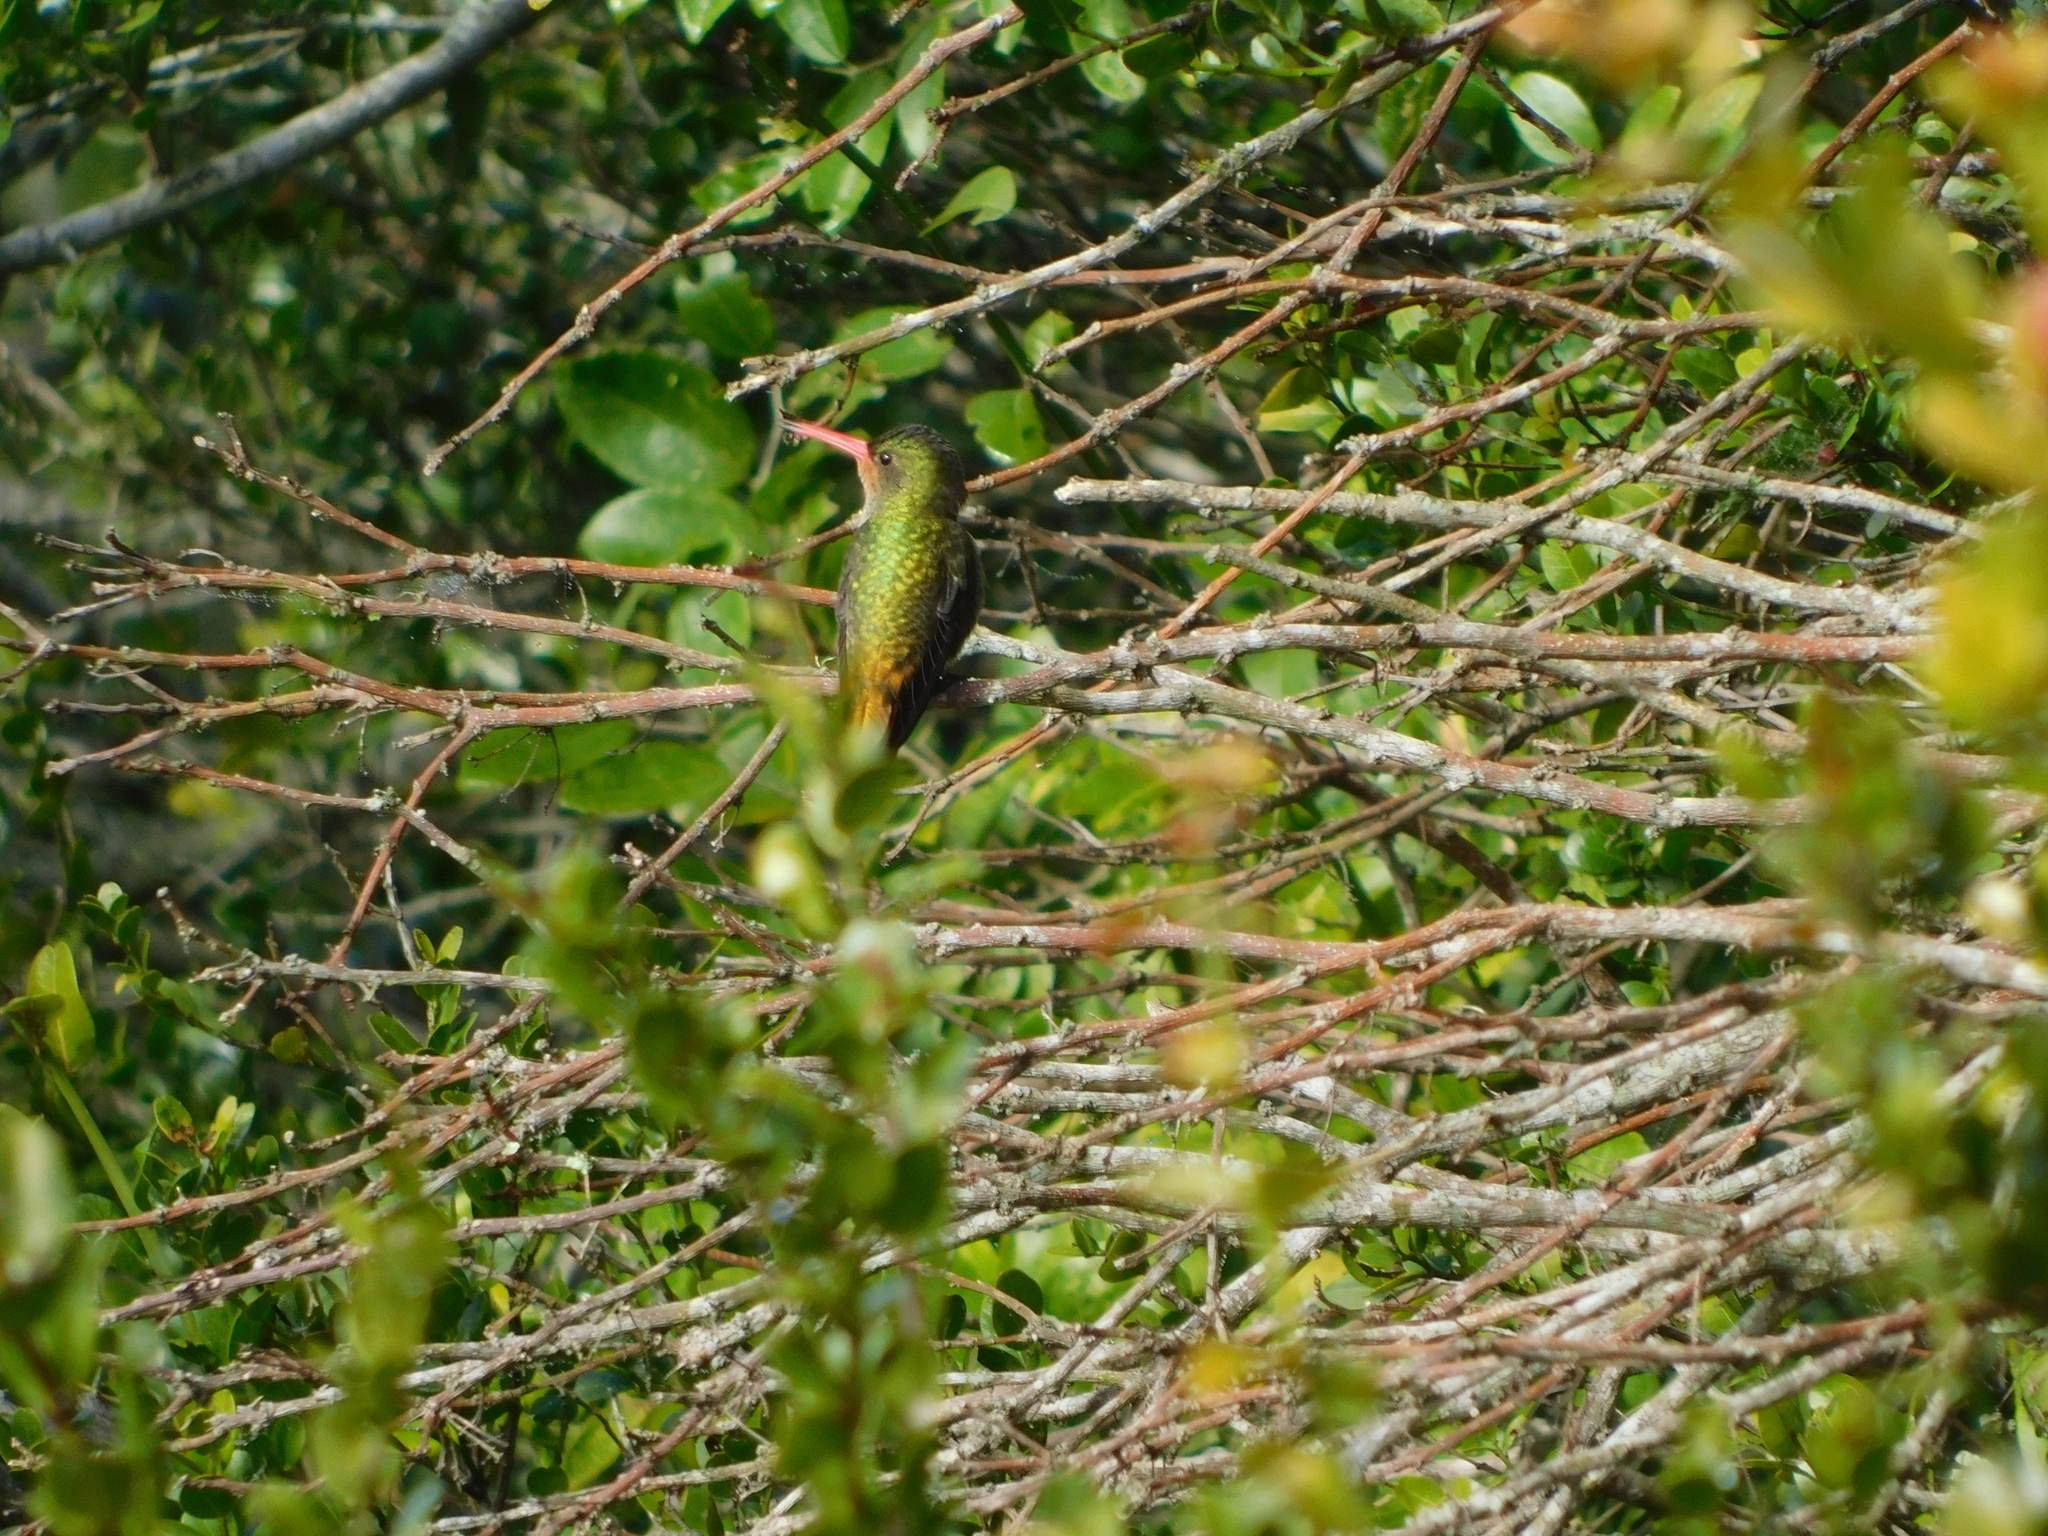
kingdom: Animalia
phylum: Chordata
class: Aves
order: Apodiformes
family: Trochilidae
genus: Hylocharis
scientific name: Hylocharis chrysura
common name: Gilded sapphire
